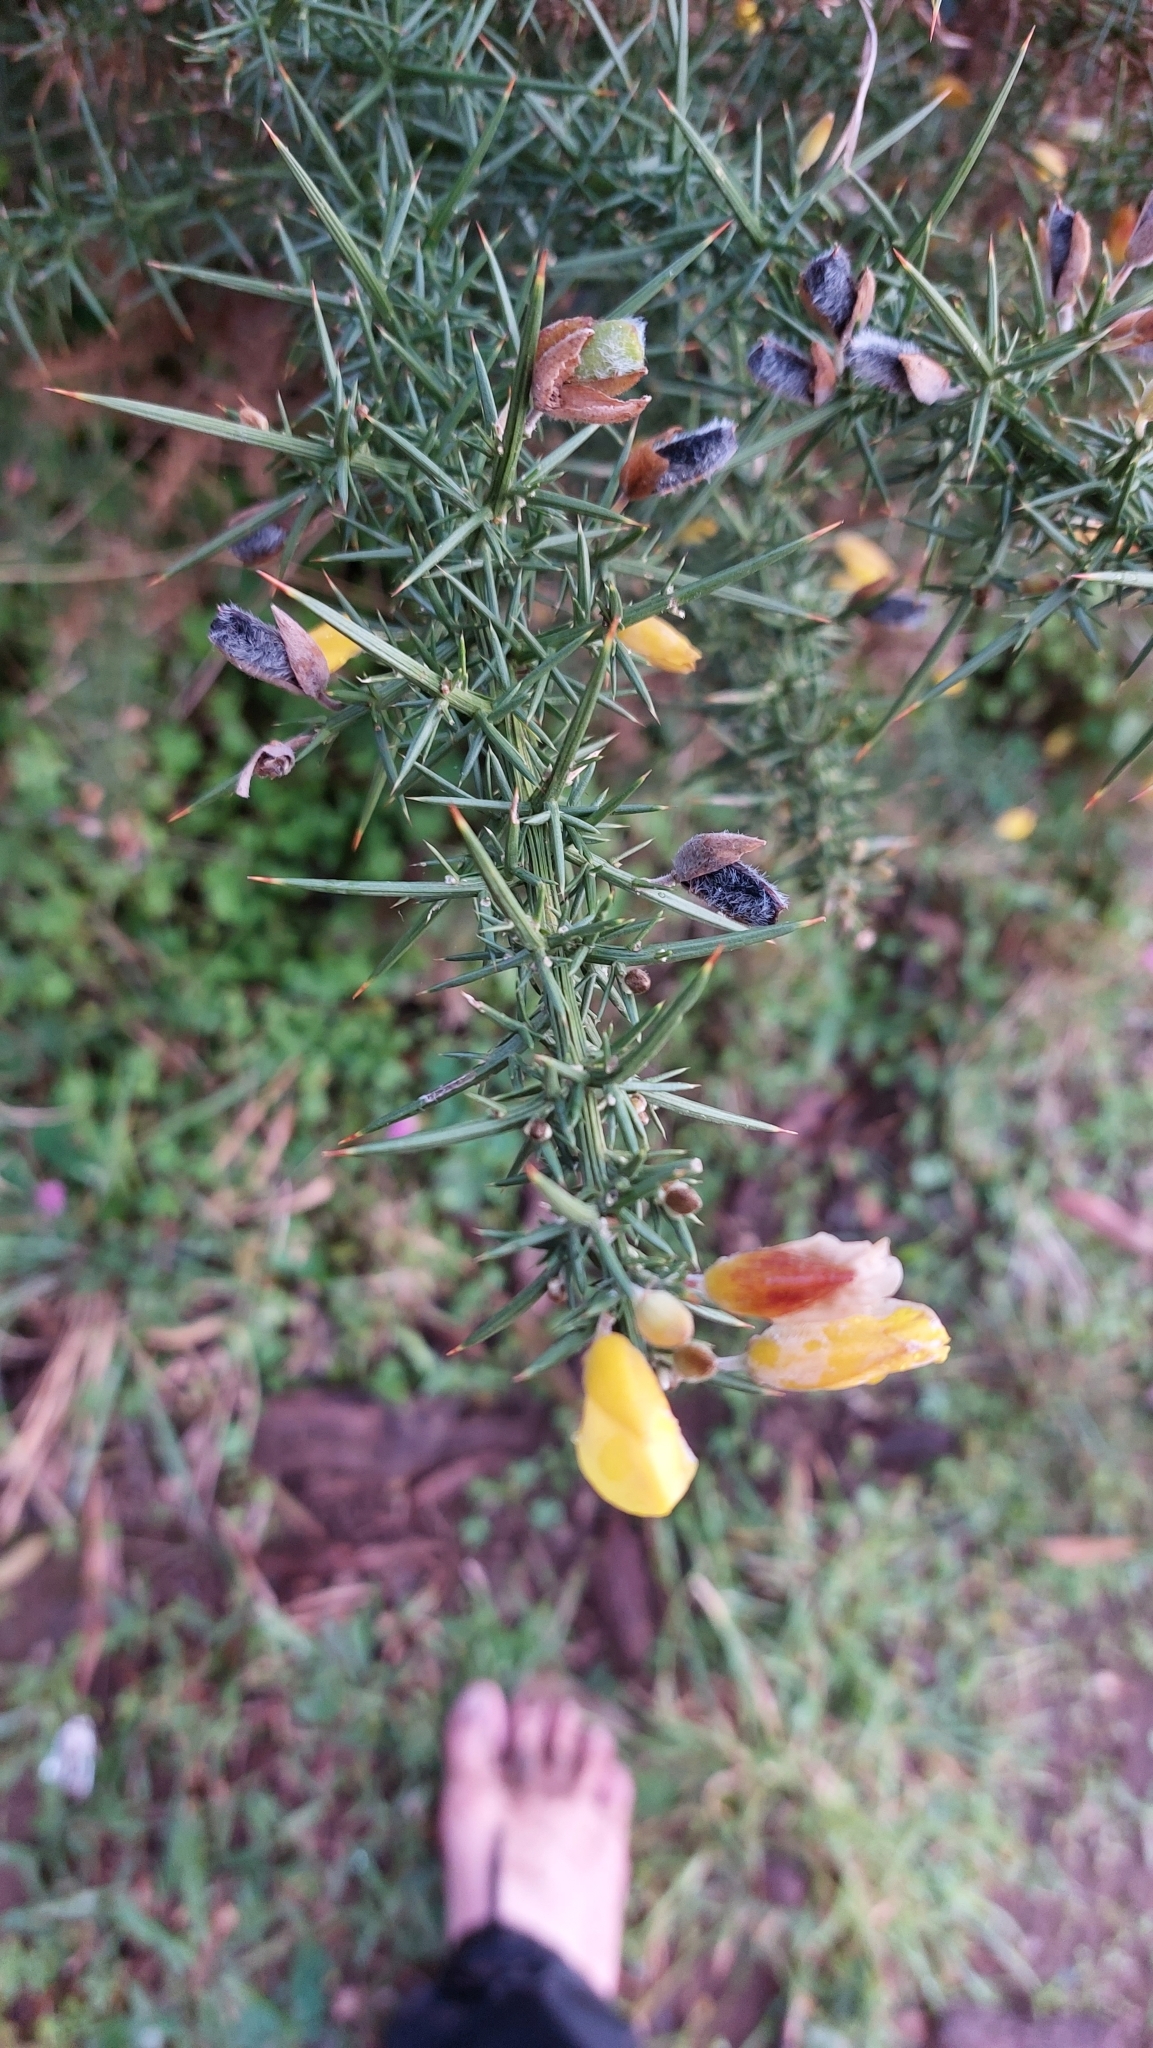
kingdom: Plantae
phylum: Tracheophyta
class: Magnoliopsida
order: Fabales
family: Fabaceae
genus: Ulex
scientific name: Ulex europaeus
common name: Common gorse
